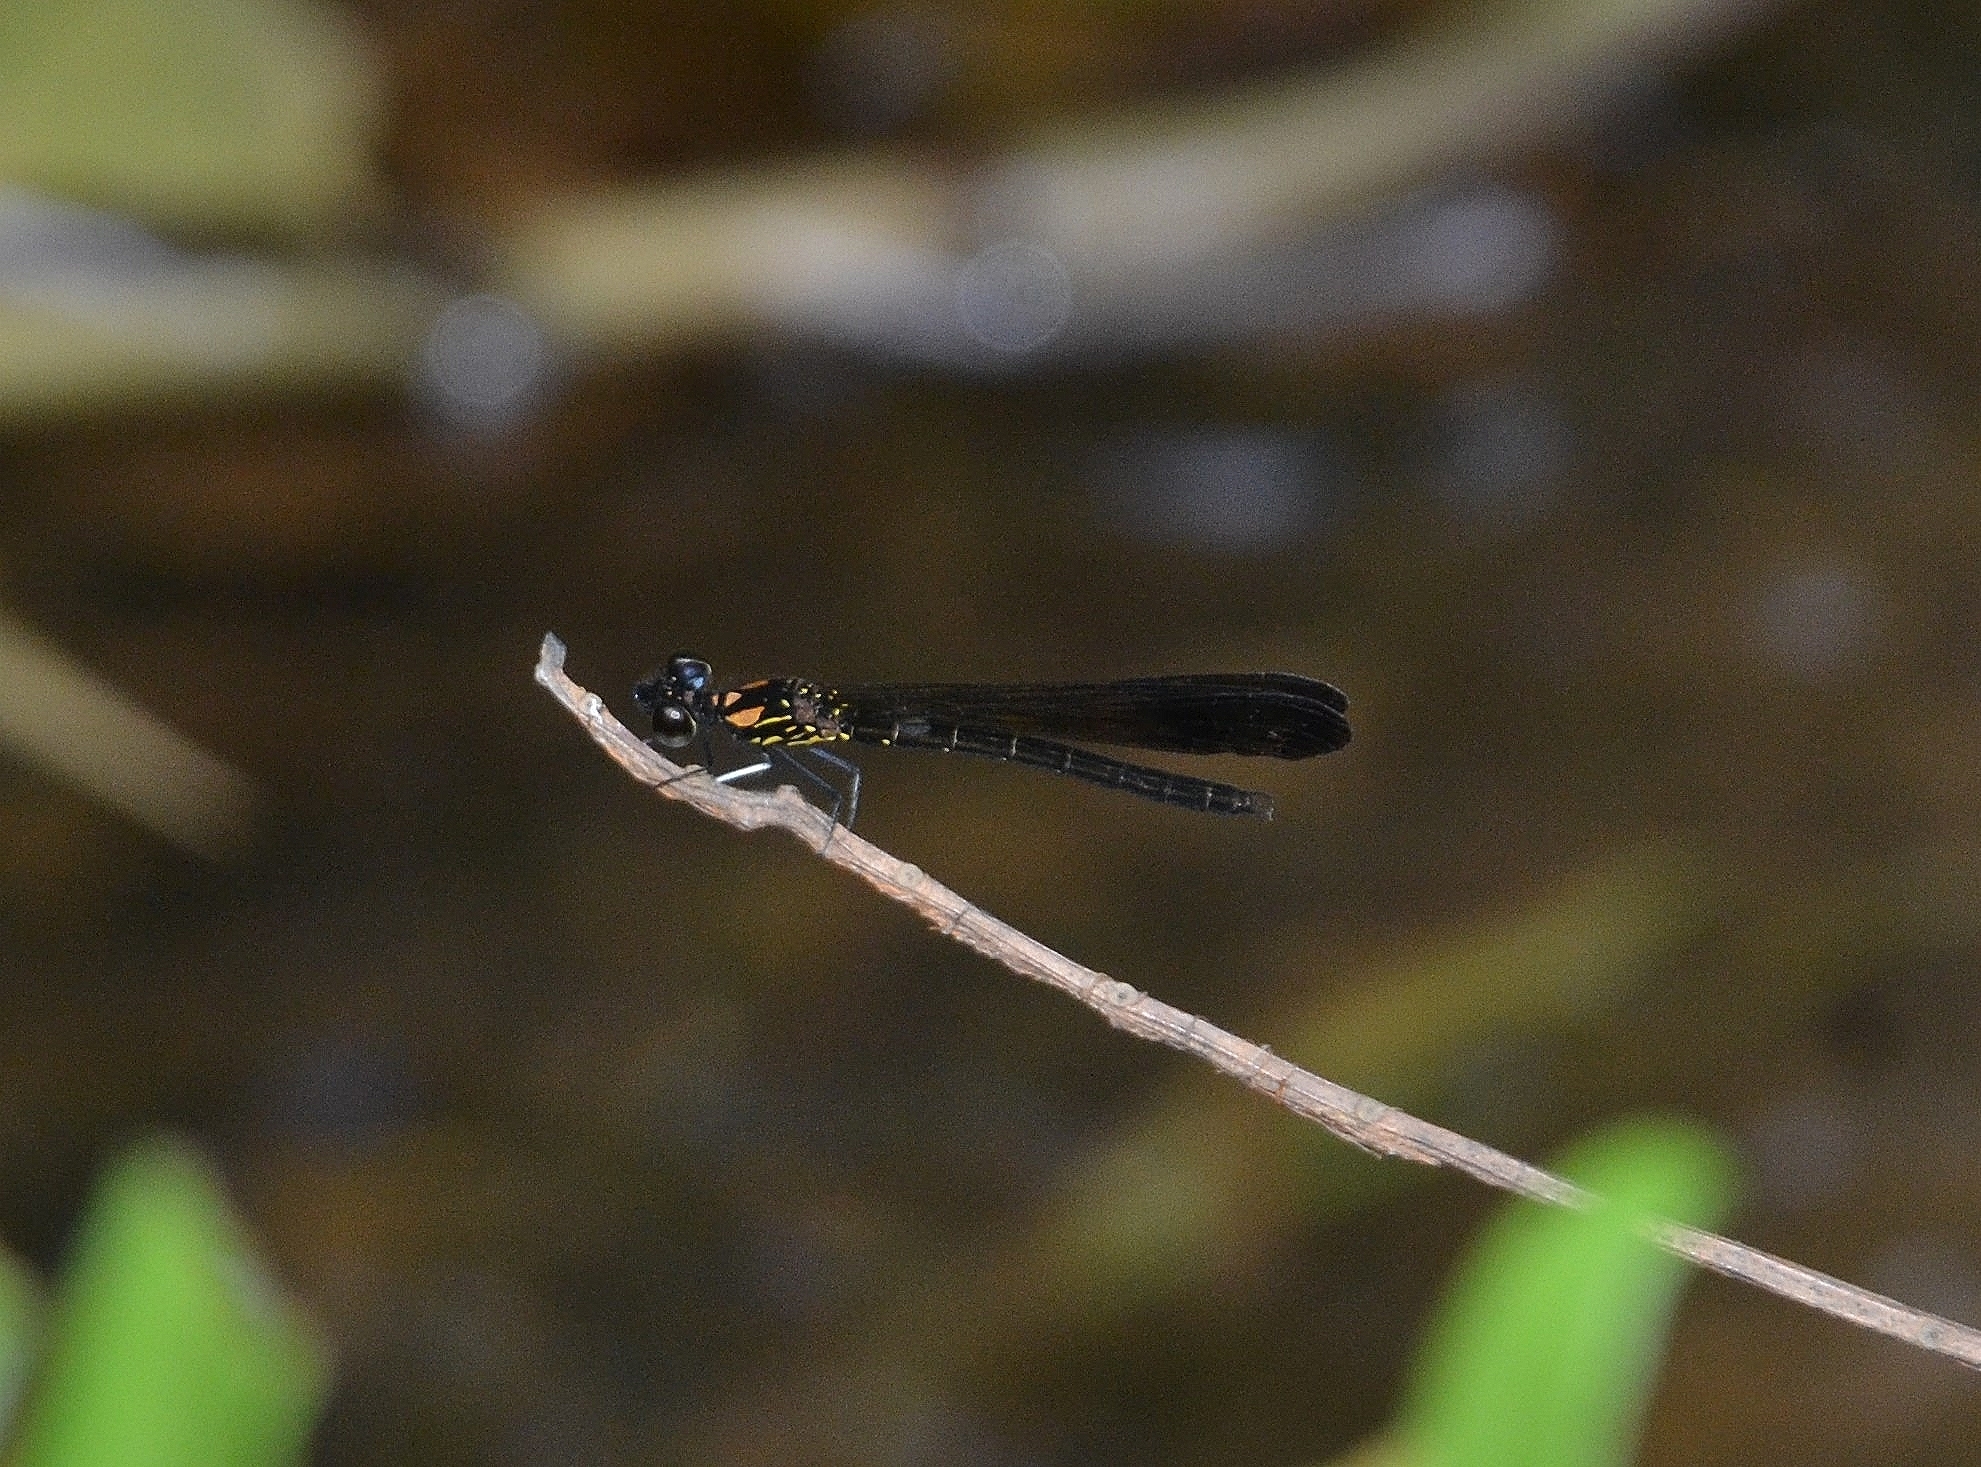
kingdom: Animalia
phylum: Arthropoda
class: Insecta
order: Odonata
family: Chlorocyphidae
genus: Heliocypha
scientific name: Heliocypha bisignata
